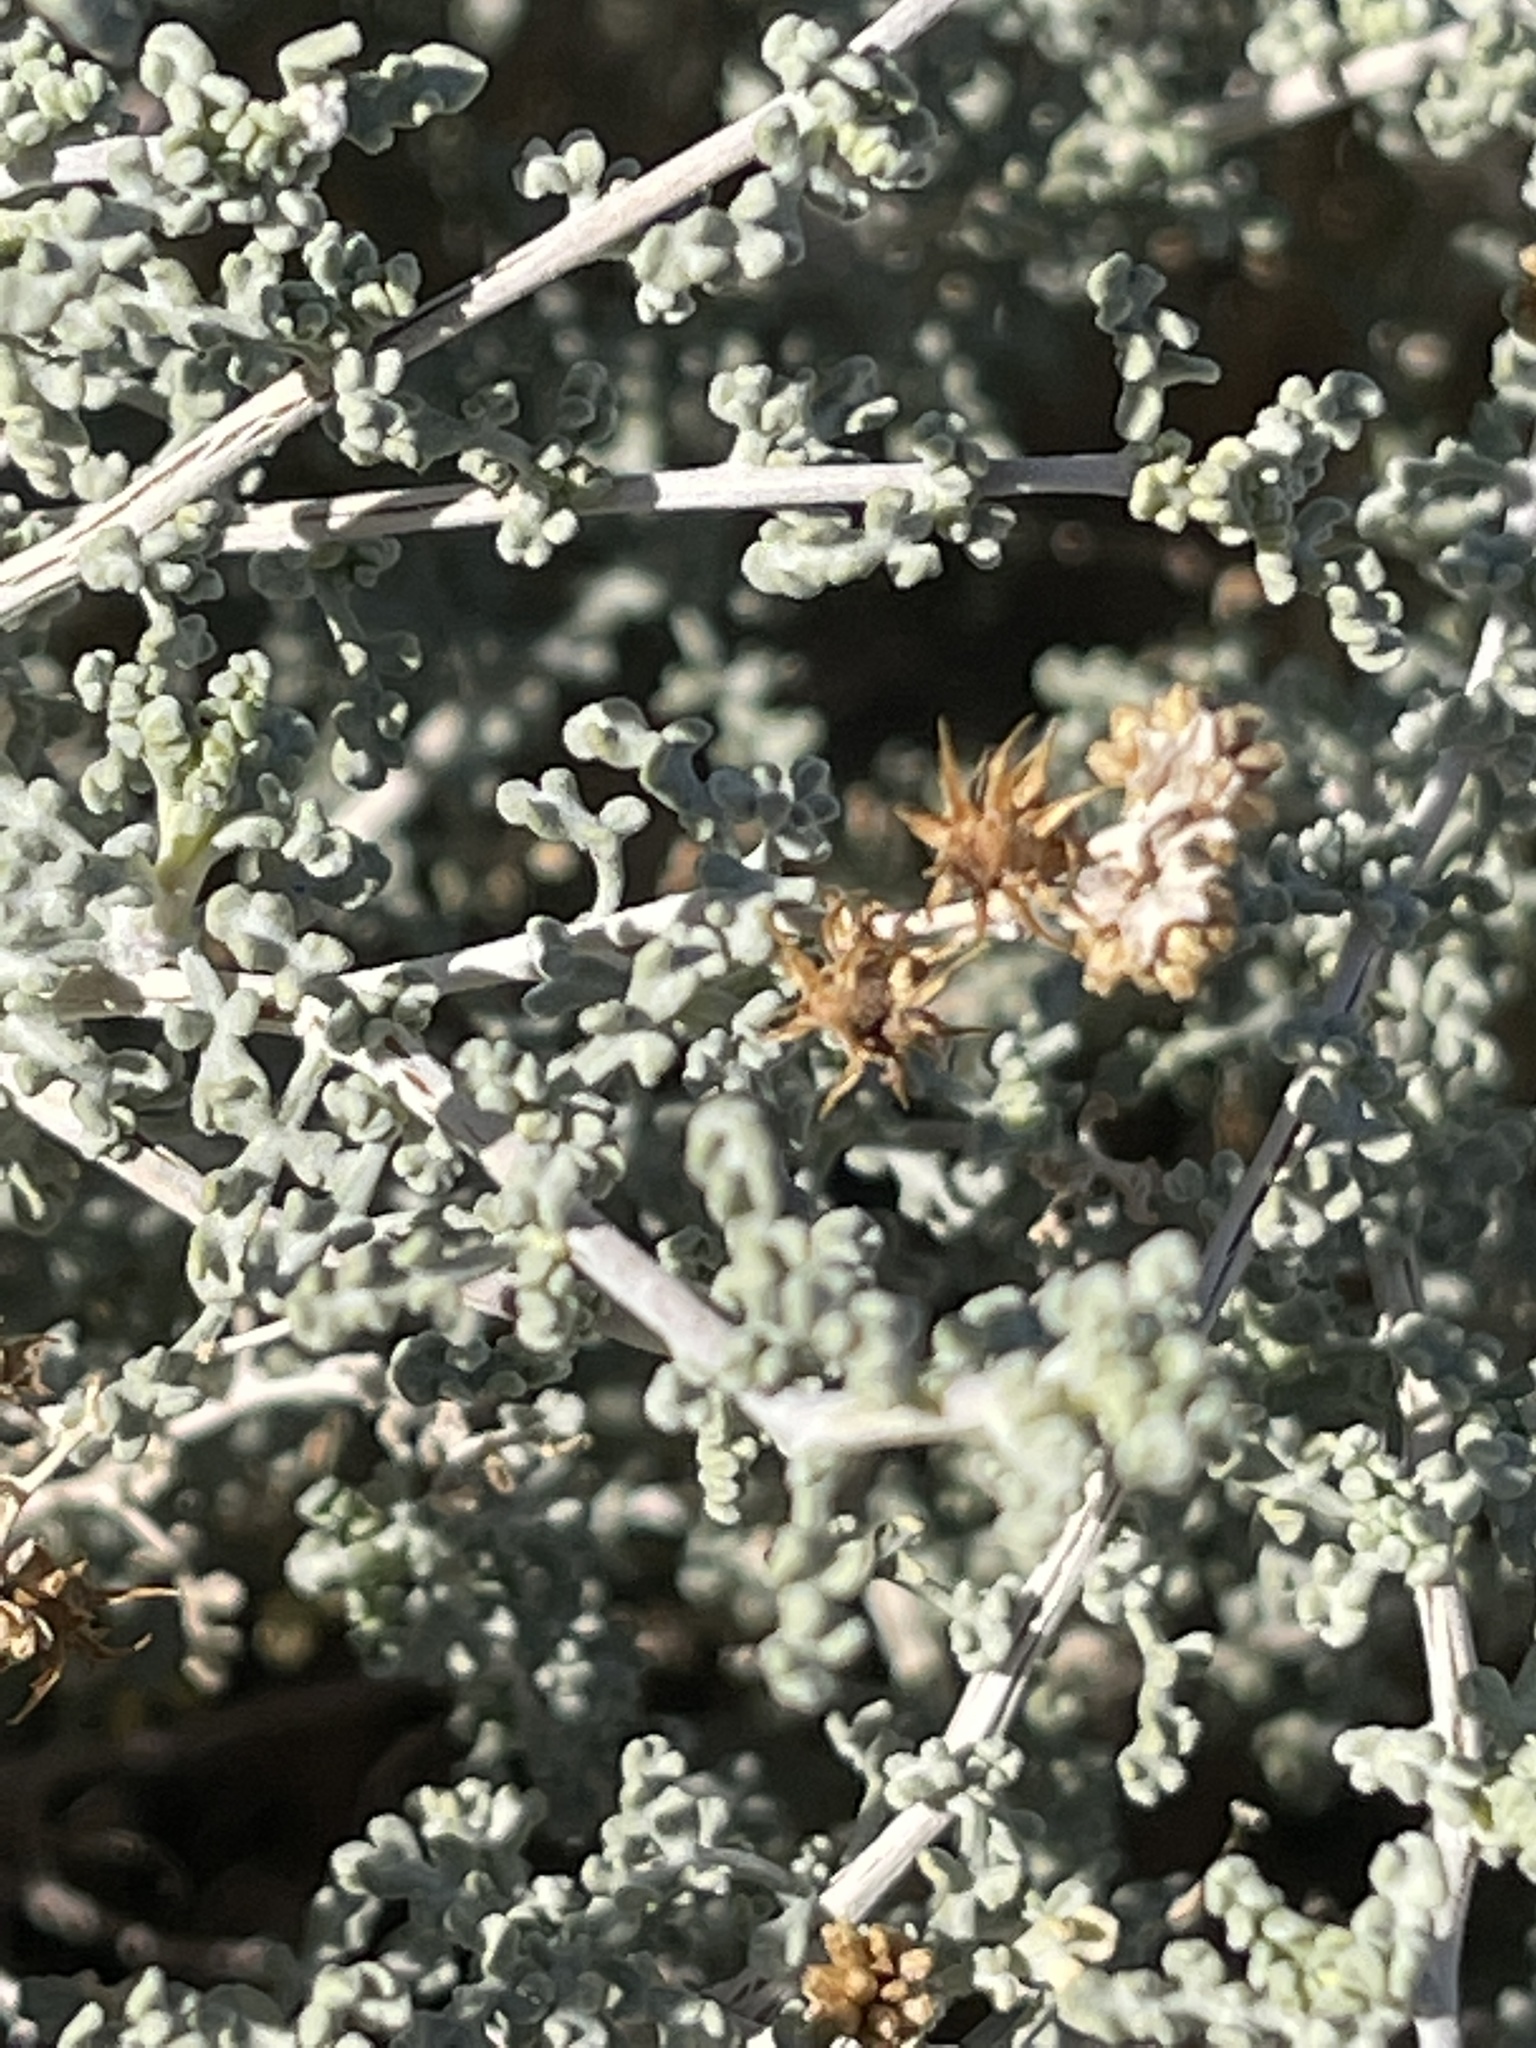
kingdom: Plantae
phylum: Tracheophyta
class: Magnoliopsida
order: Asterales
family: Asteraceae
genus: Ambrosia
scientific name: Ambrosia dumosa
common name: Bur-sage
